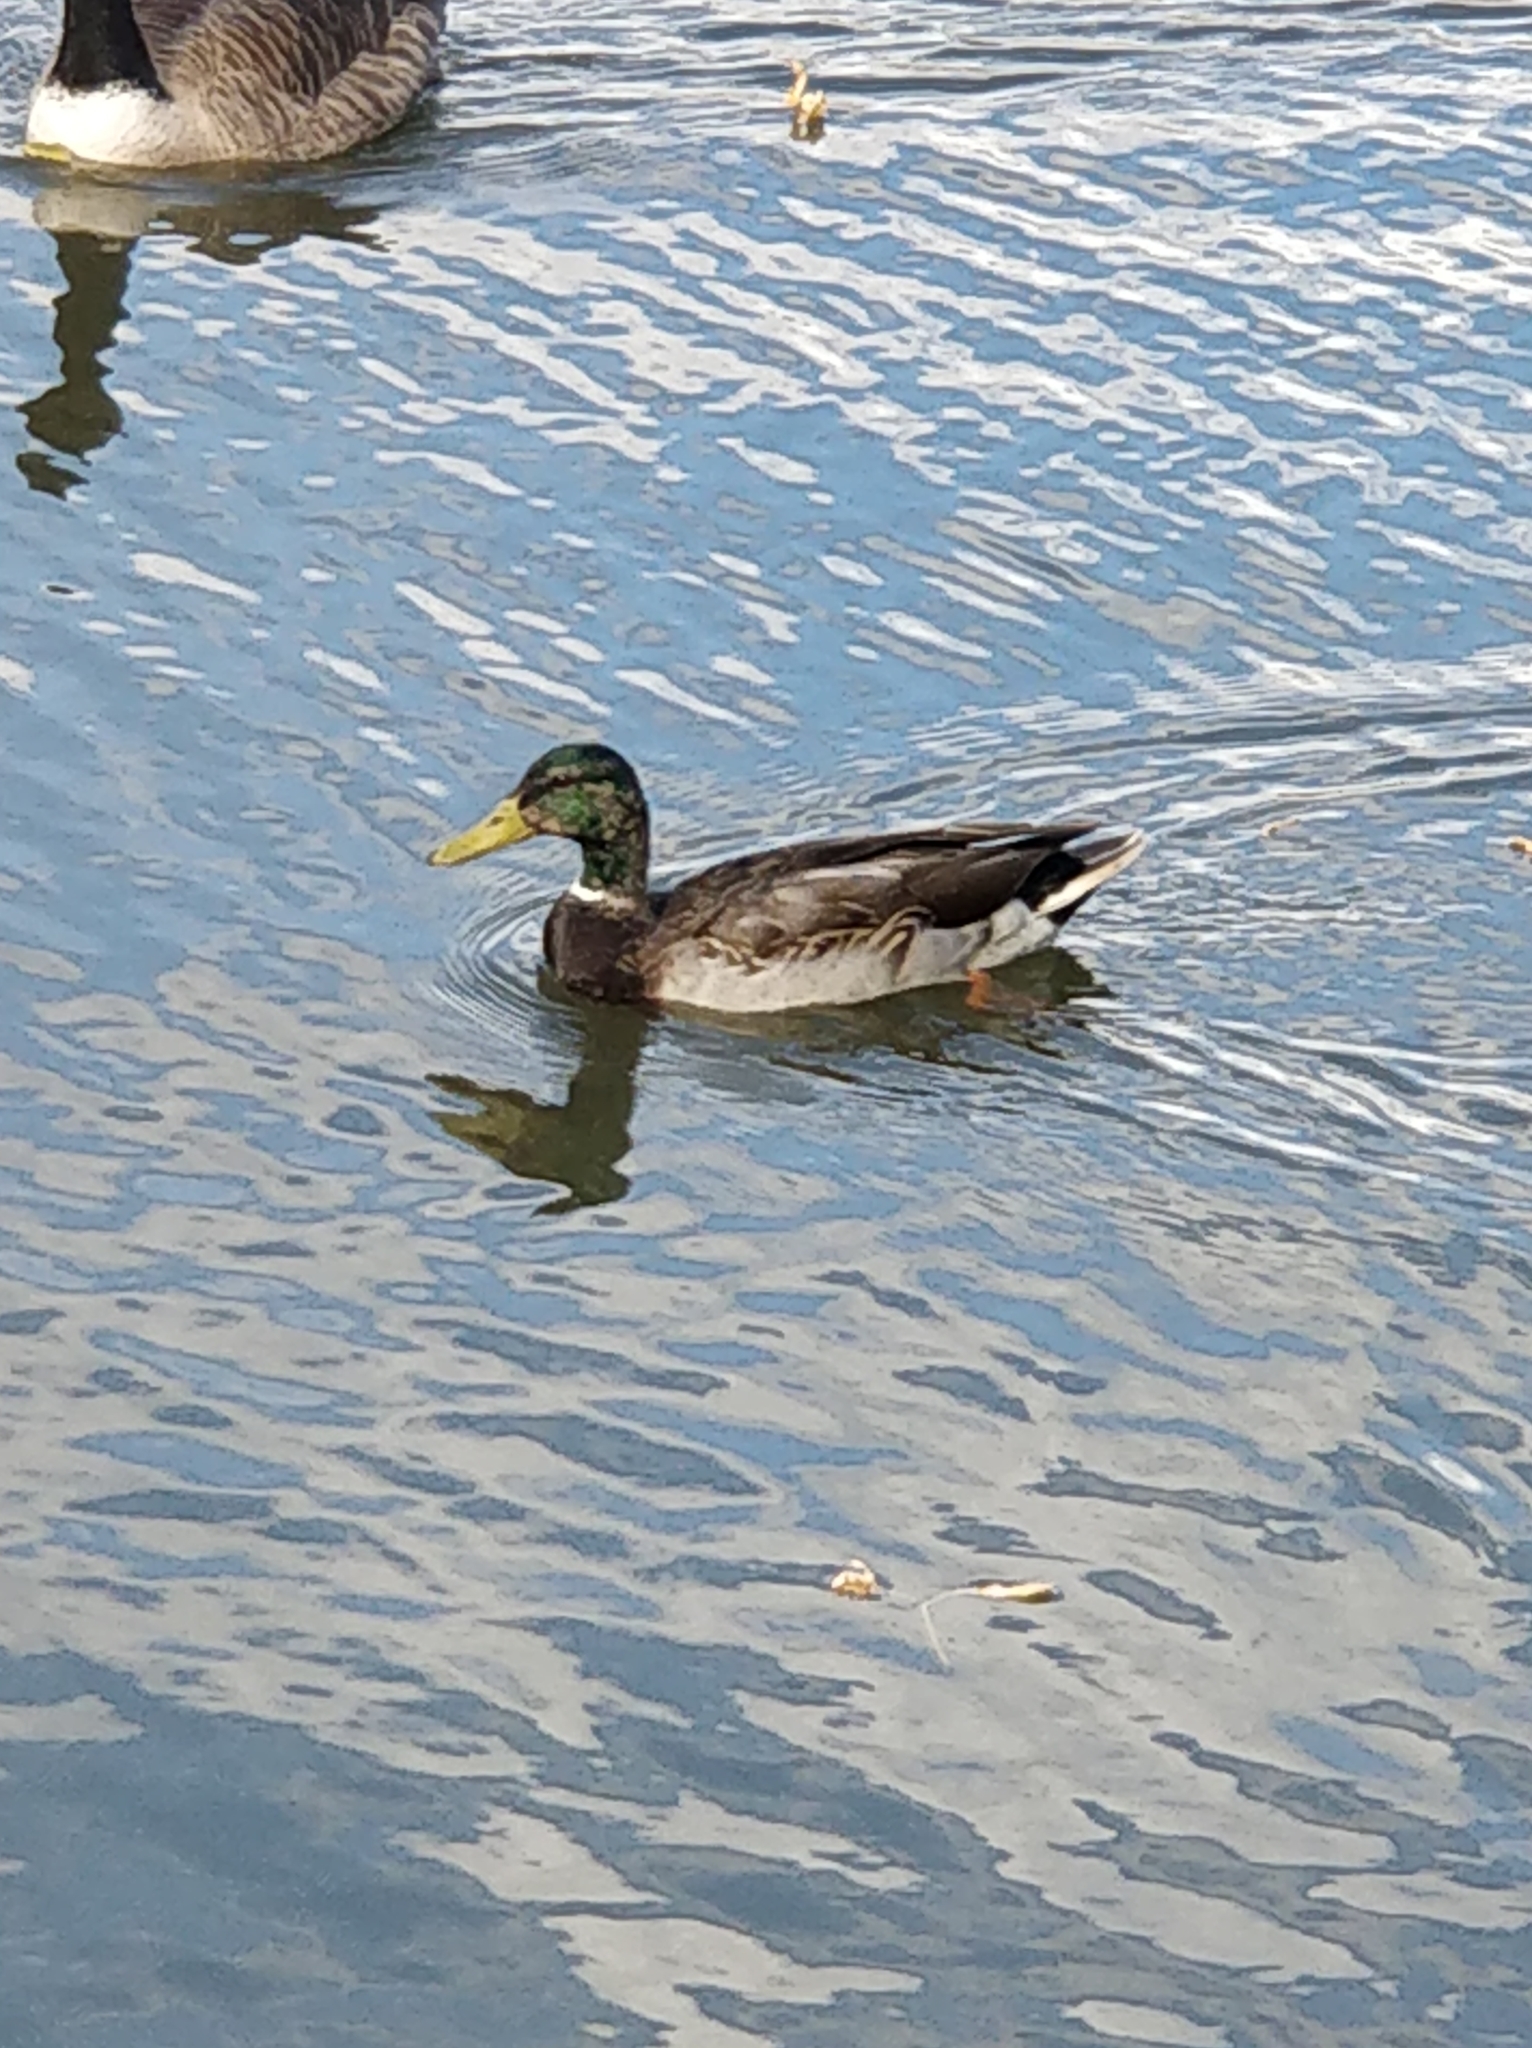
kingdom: Animalia
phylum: Chordata
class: Aves
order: Anseriformes
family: Anatidae
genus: Anas
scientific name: Anas platyrhynchos
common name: Mallard
